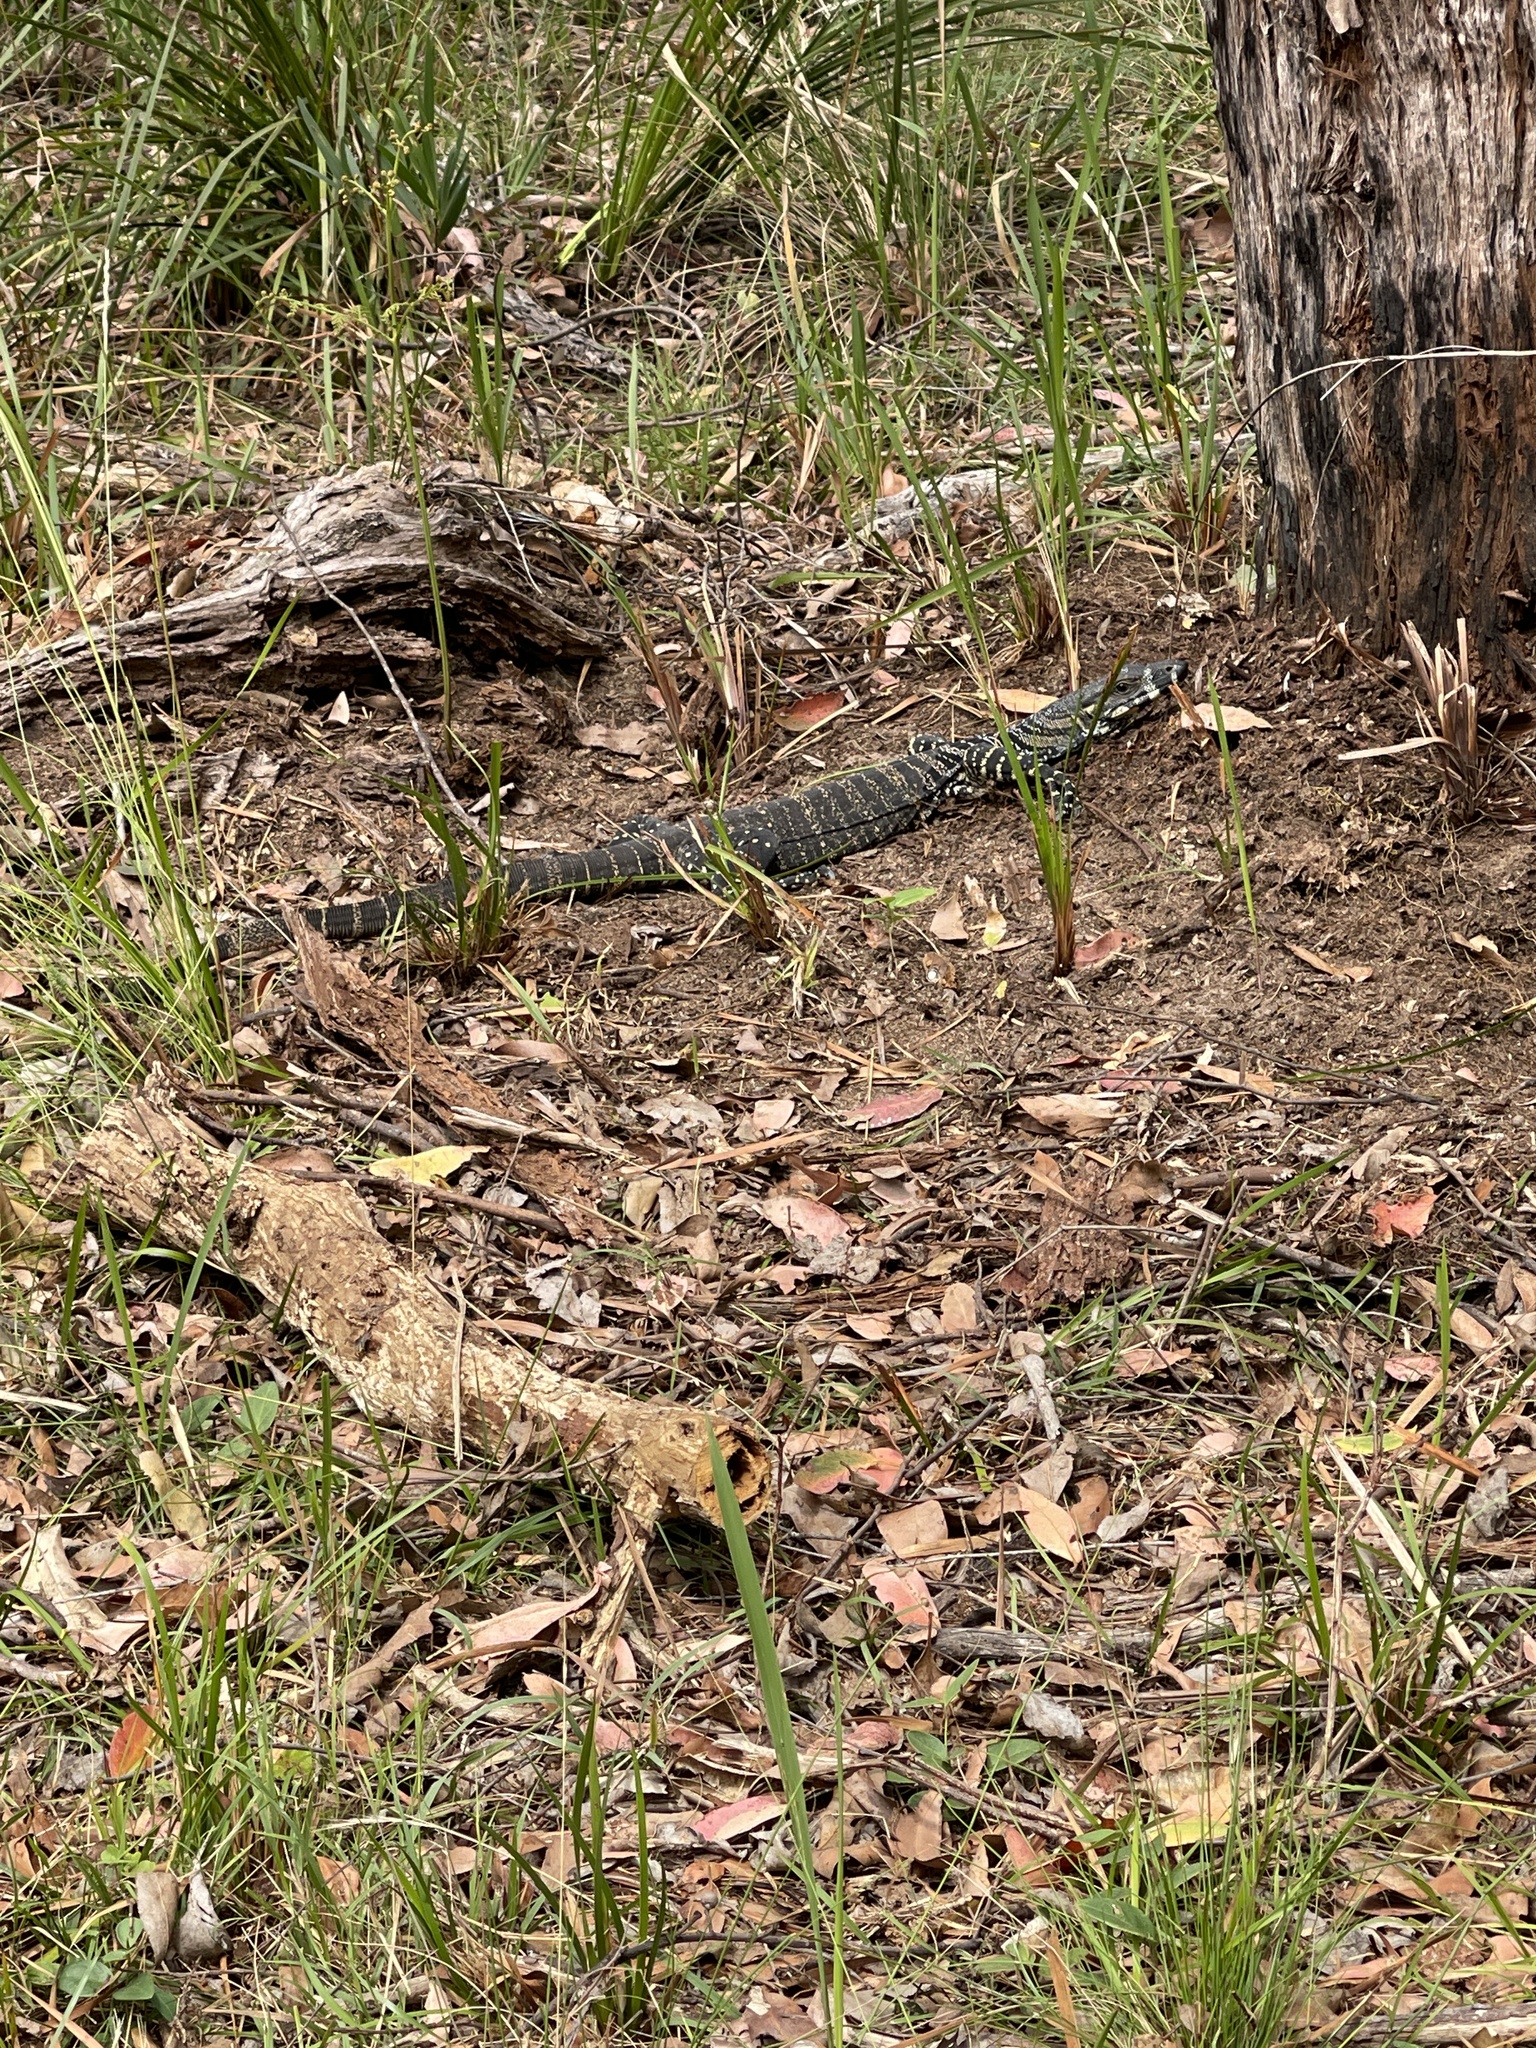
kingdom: Animalia
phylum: Chordata
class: Squamata
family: Varanidae
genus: Varanus
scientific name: Varanus varius
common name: Lace monitor
